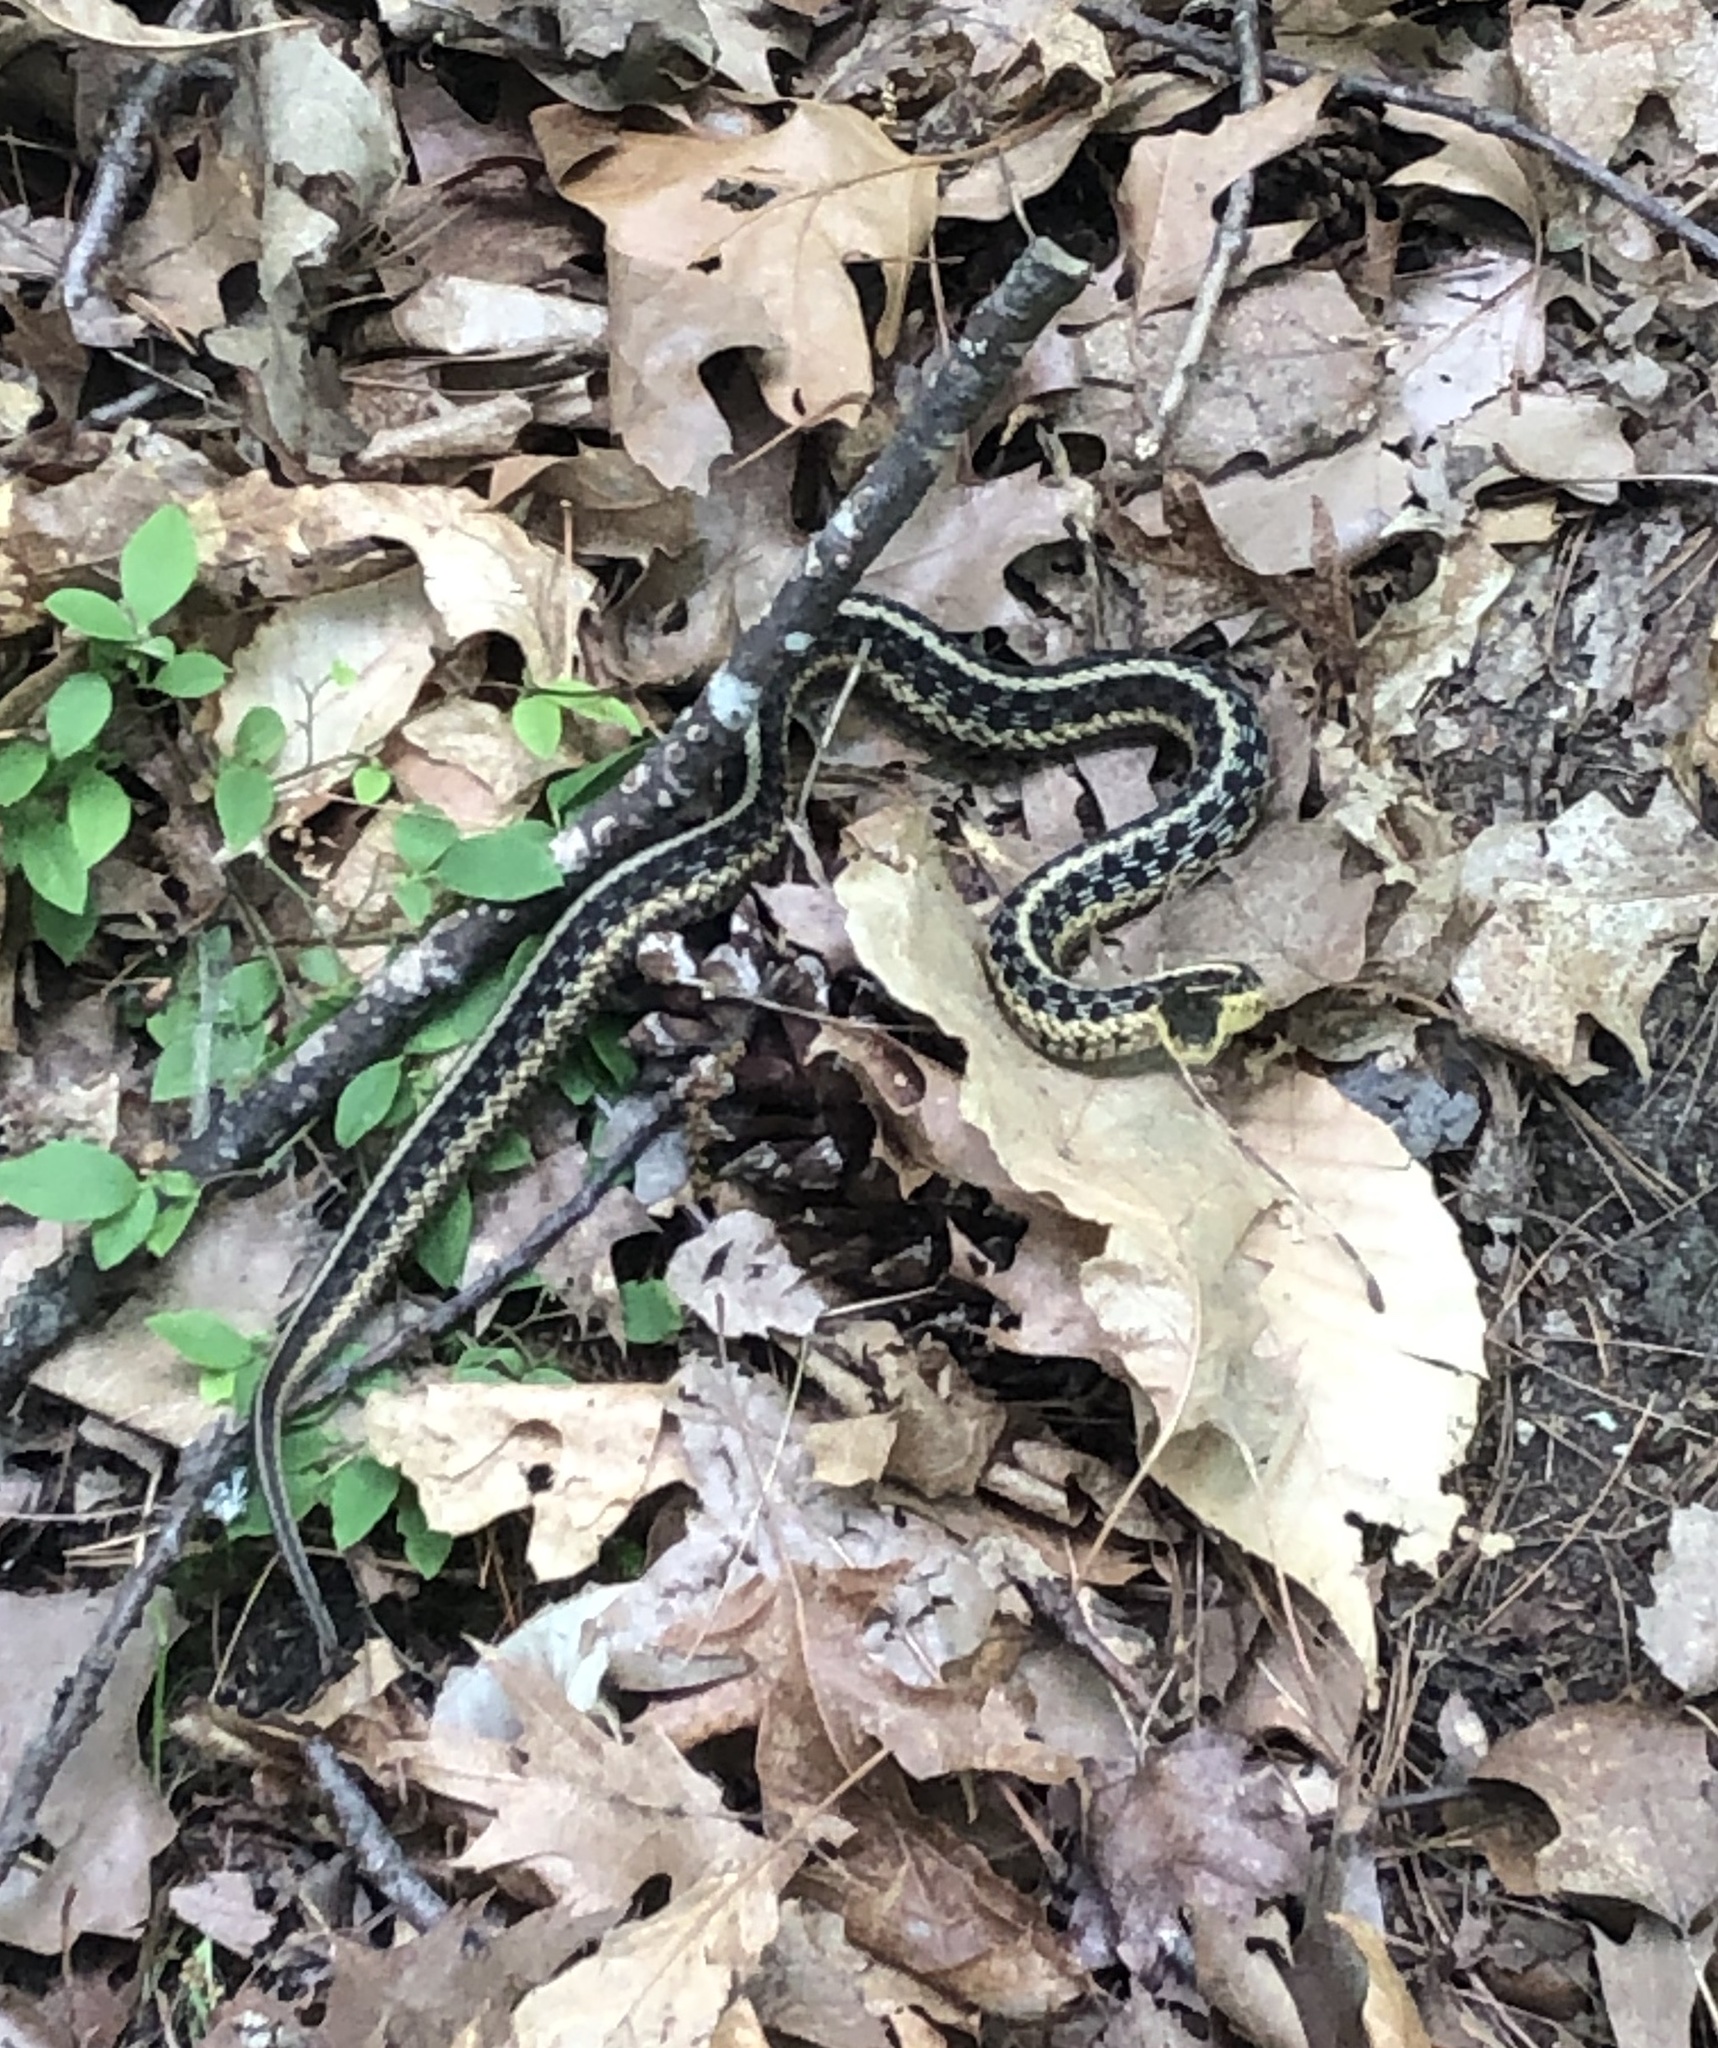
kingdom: Animalia
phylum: Chordata
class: Squamata
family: Colubridae
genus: Thamnophis
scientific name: Thamnophis sirtalis
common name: Common garter snake
